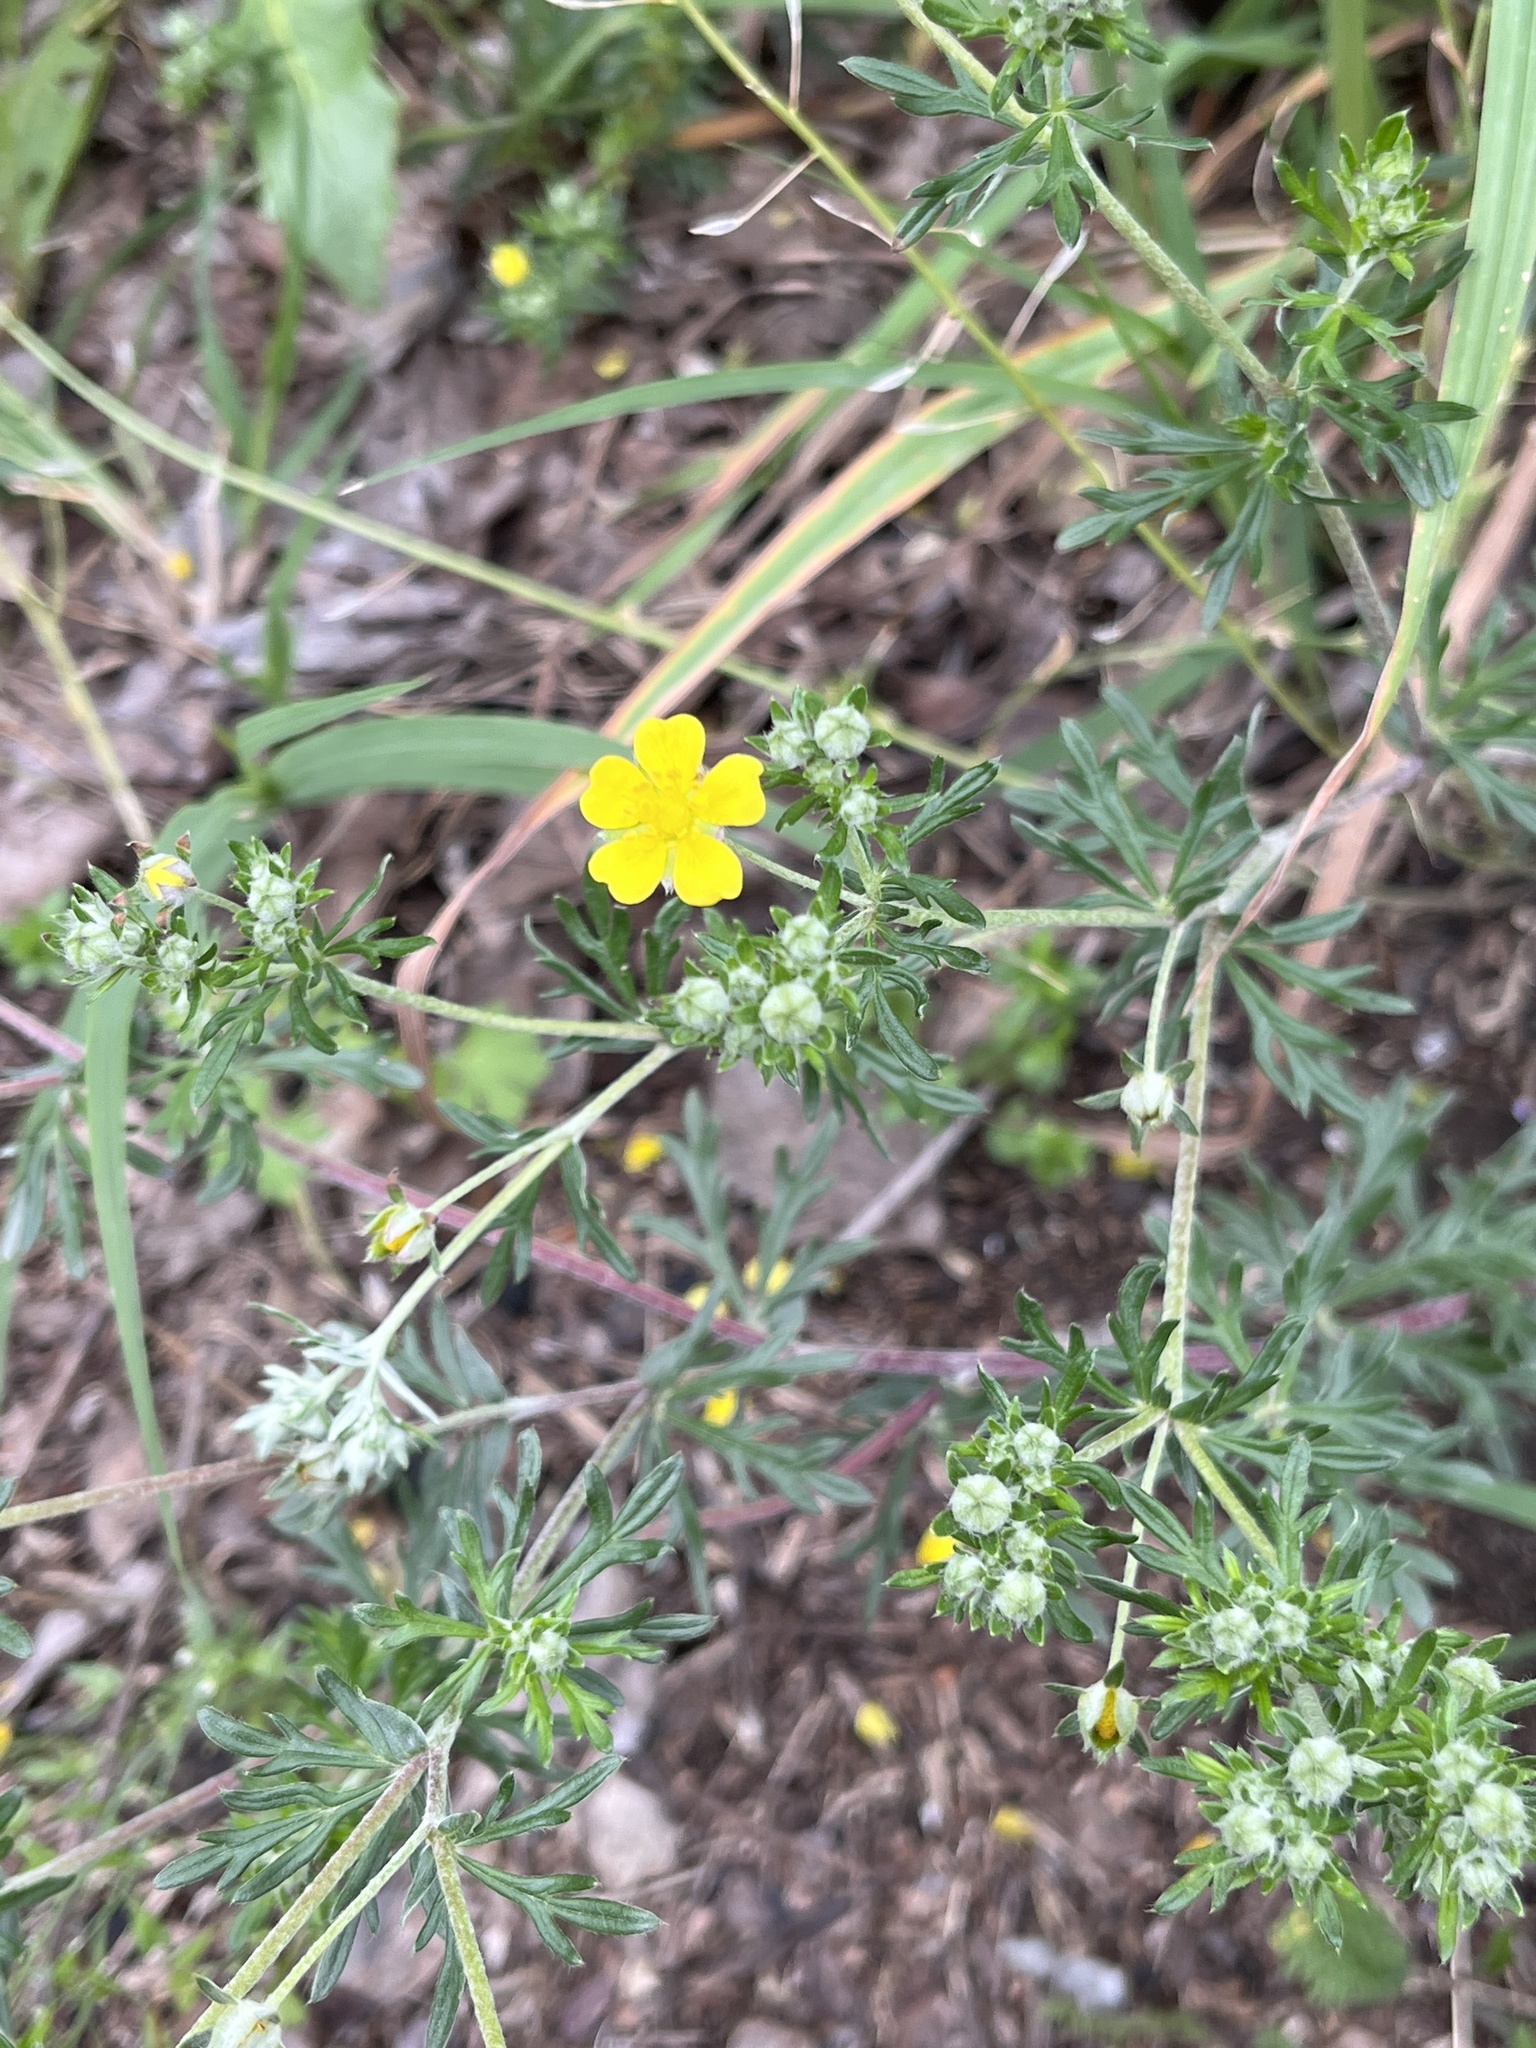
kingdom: Plantae
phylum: Tracheophyta
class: Magnoliopsida
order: Rosales
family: Rosaceae
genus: Potentilla
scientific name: Potentilla argentea
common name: Hoary cinquefoil
